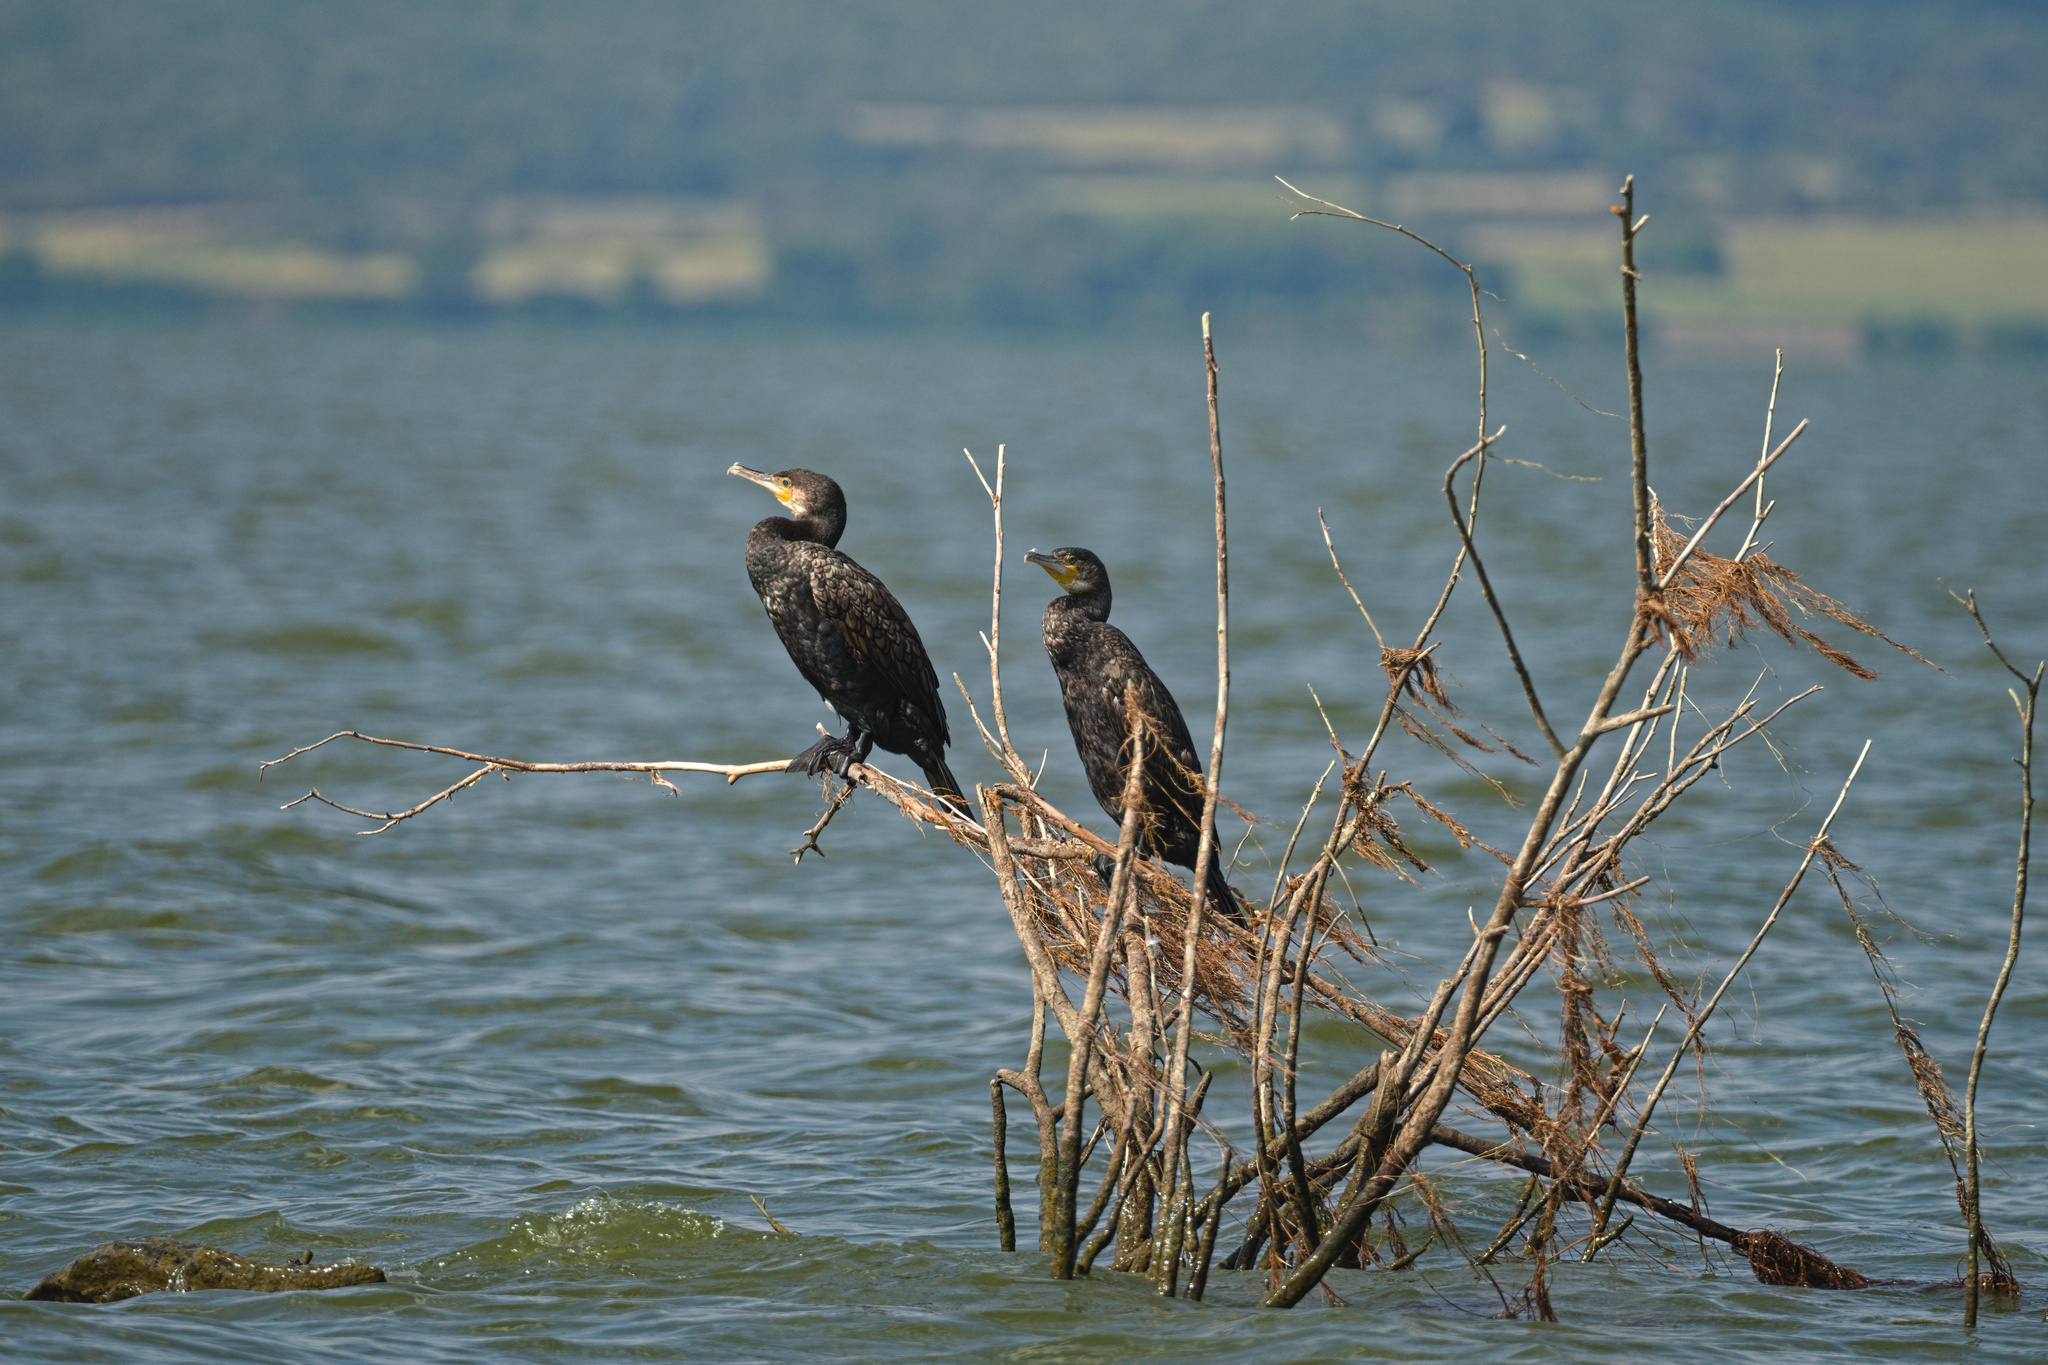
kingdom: Animalia
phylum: Chordata
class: Aves
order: Suliformes
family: Phalacrocoracidae
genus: Phalacrocorax
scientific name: Phalacrocorax carbo
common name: Great cormorant
